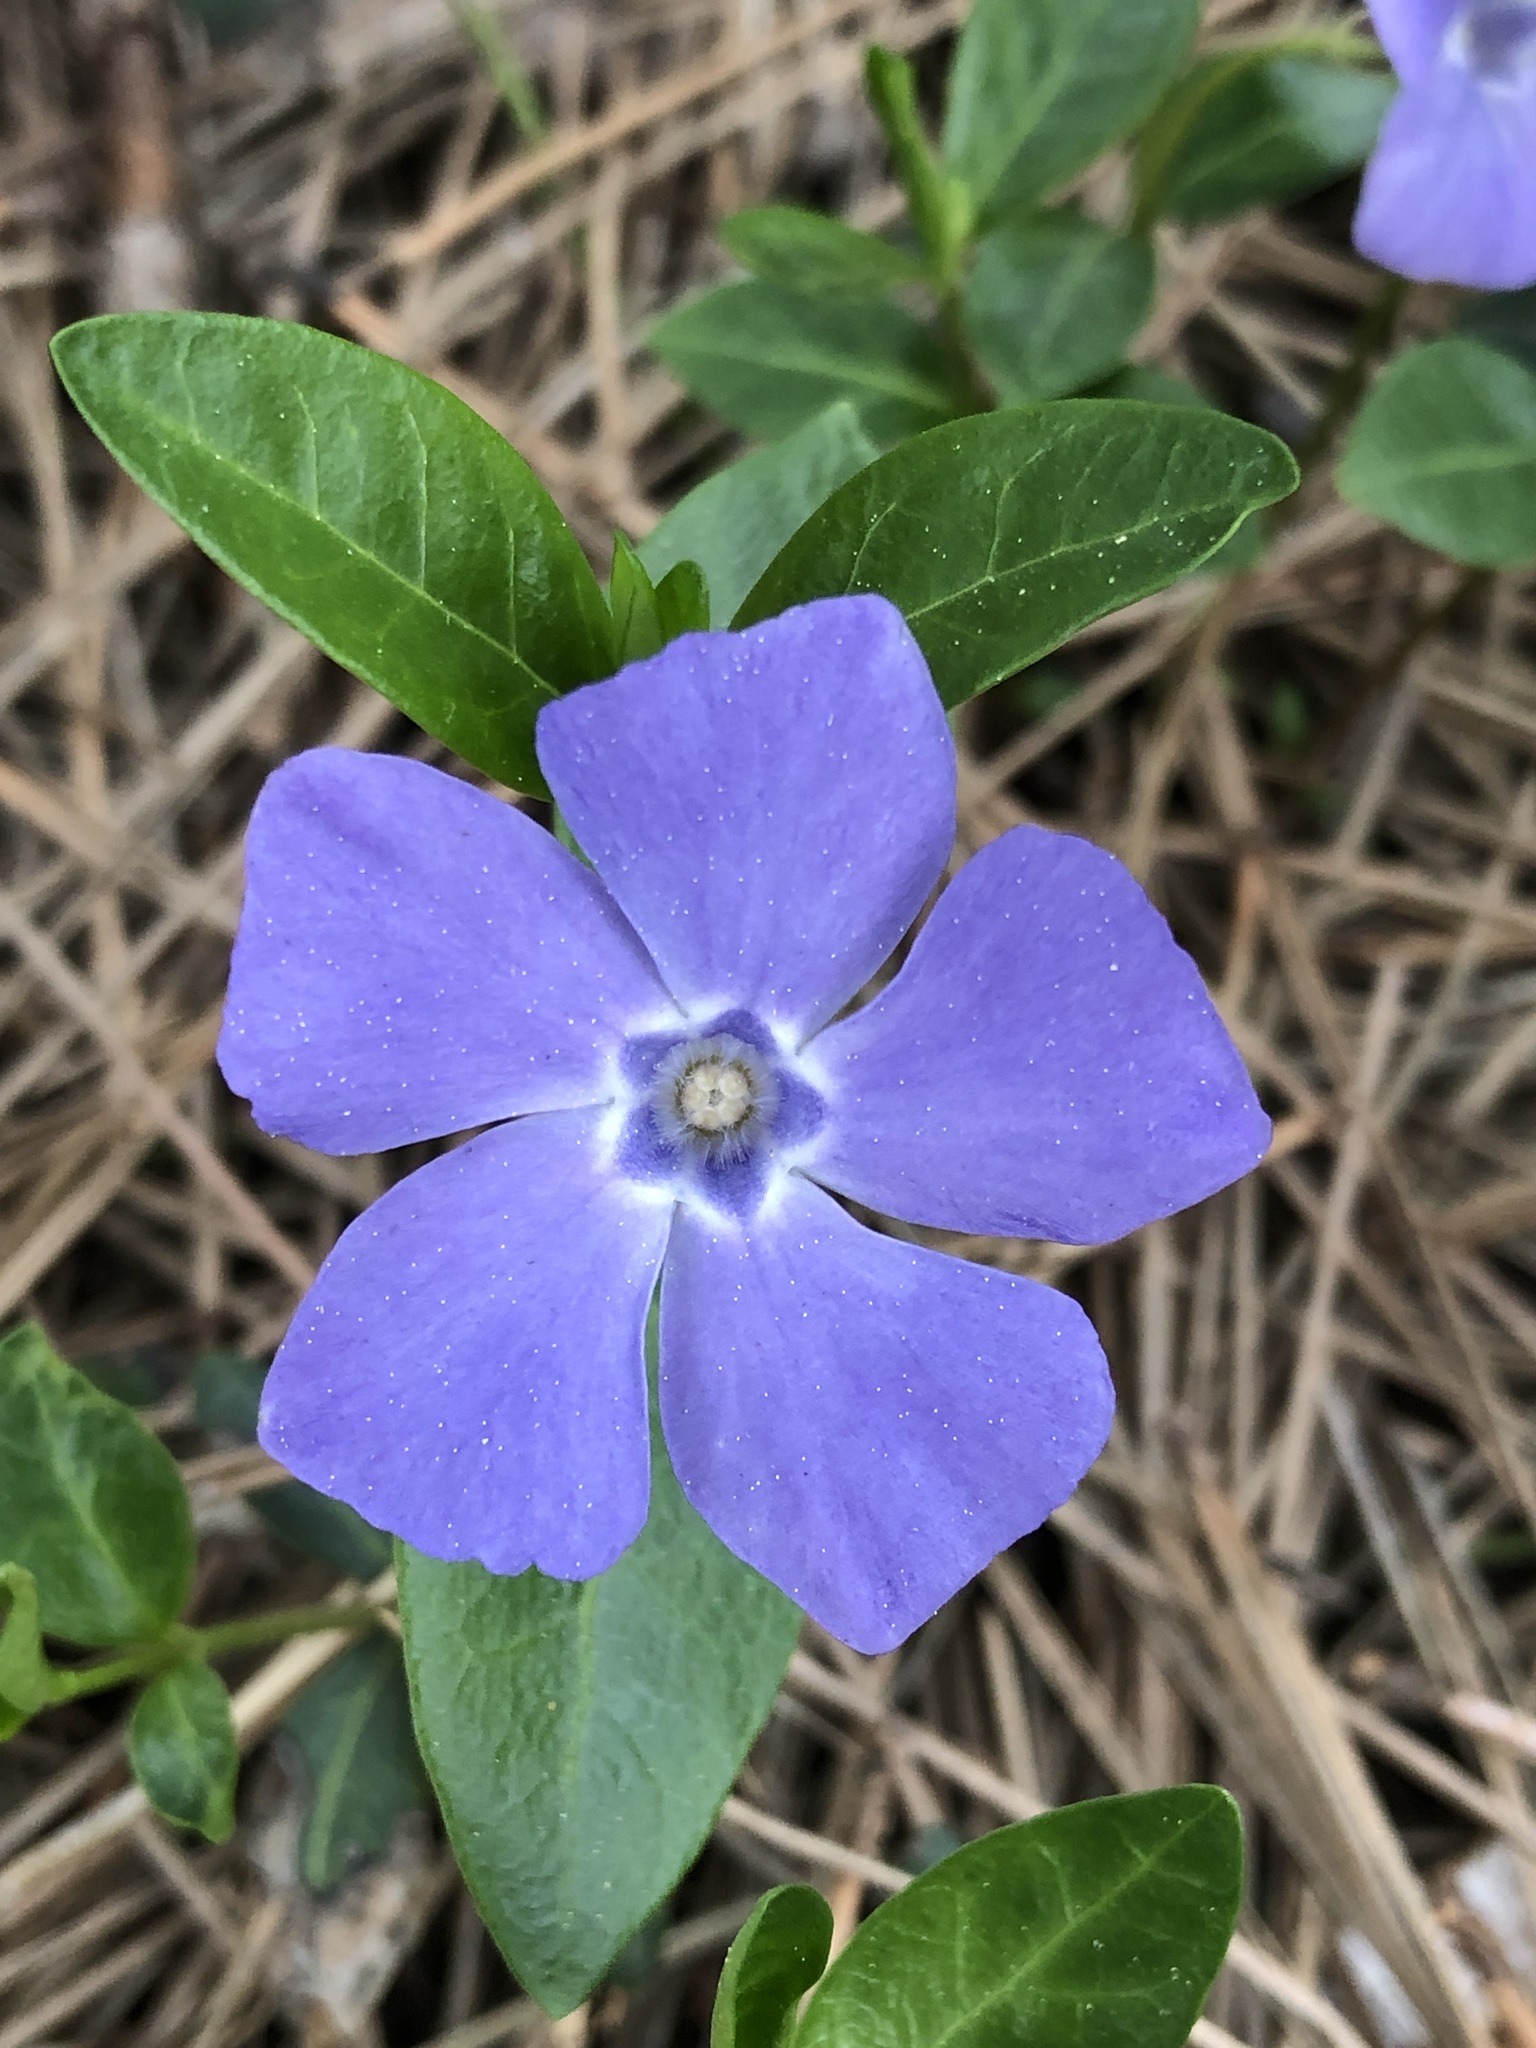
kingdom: Plantae
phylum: Tracheophyta
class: Magnoliopsida
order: Gentianales
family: Apocynaceae
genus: Vinca
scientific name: Vinca minor
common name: Lesser periwinkle
